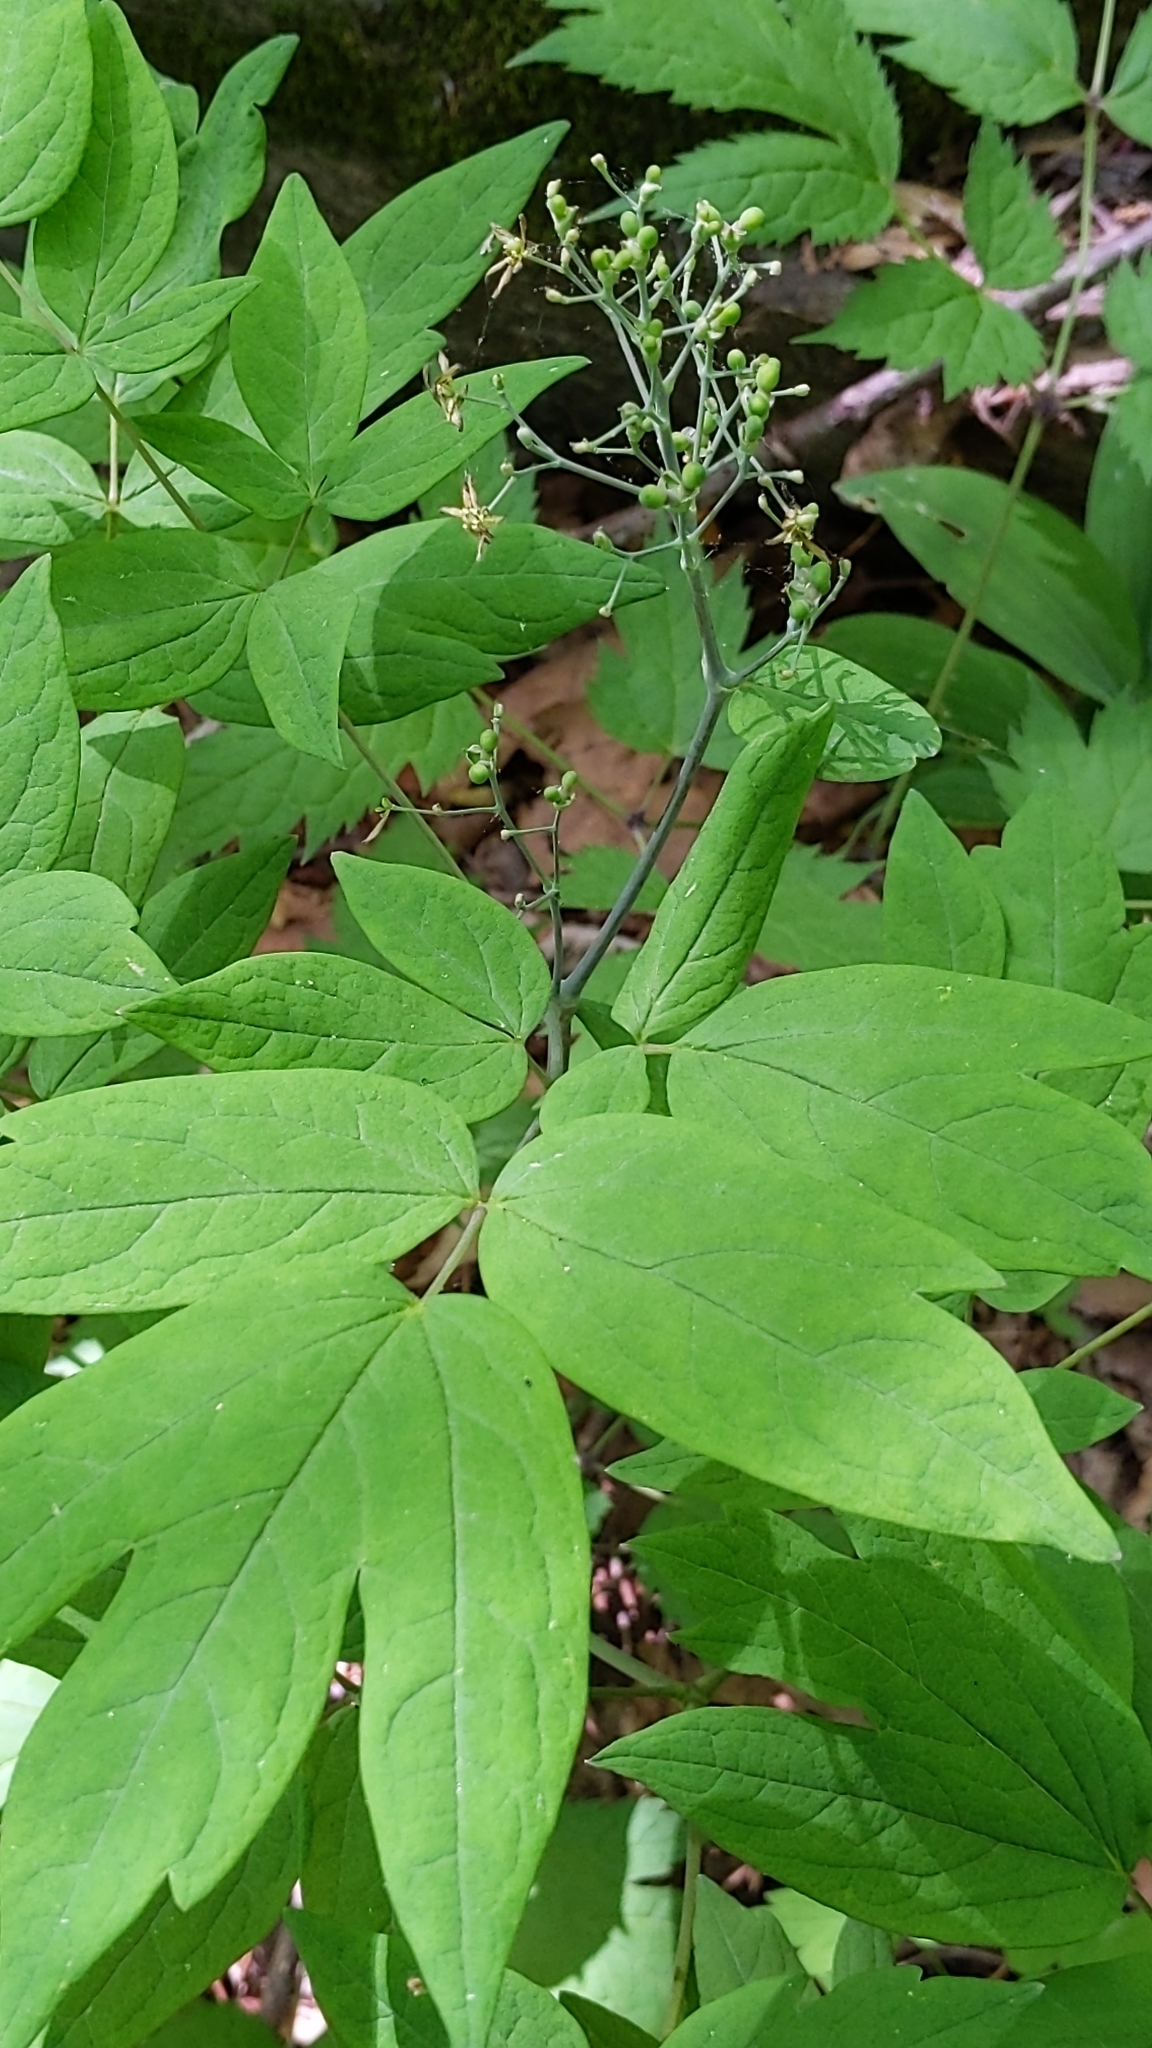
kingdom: Plantae
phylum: Tracheophyta
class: Magnoliopsida
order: Ranunculales
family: Berberidaceae
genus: Caulophyllum
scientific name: Caulophyllum thalictroides
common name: Blue cohosh
